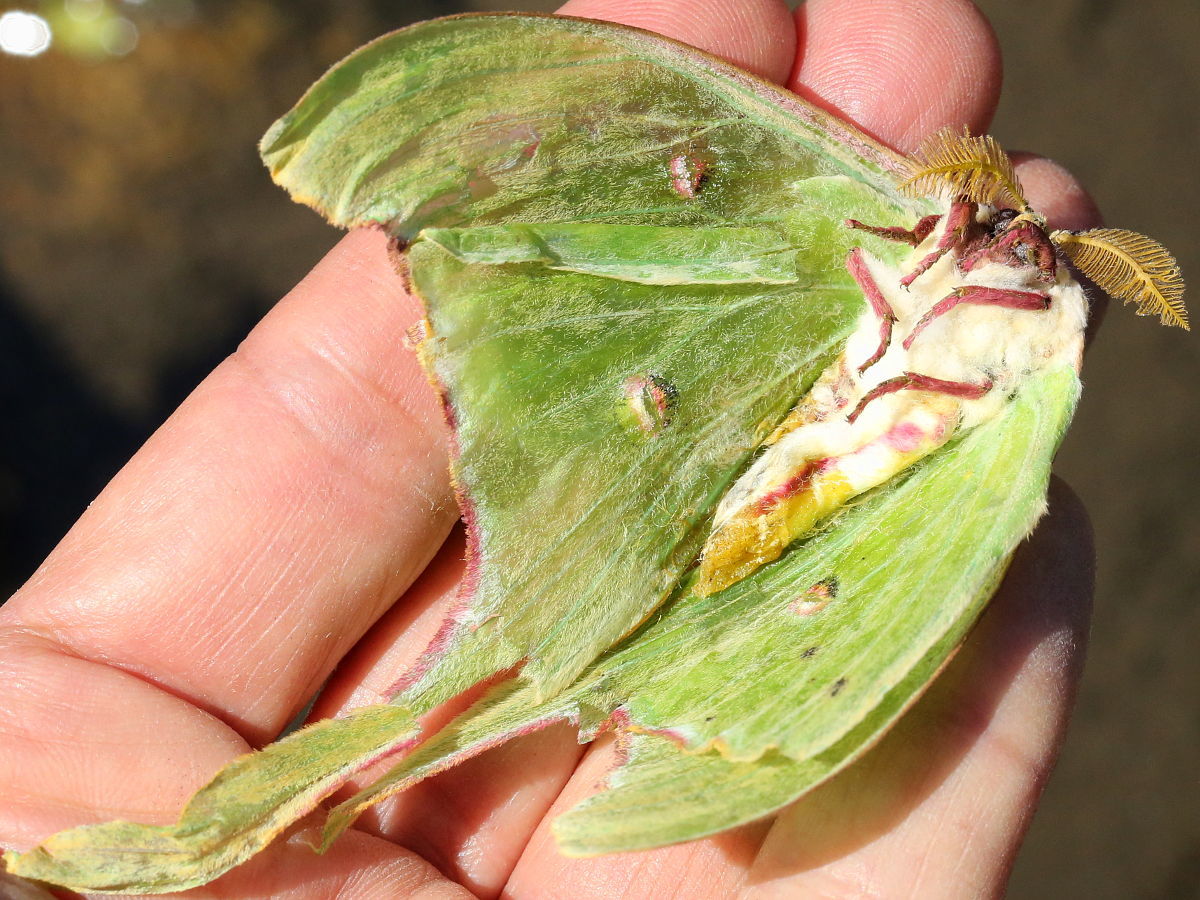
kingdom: Animalia
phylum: Arthropoda
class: Insecta
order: Lepidoptera
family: Saturniidae
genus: Actias
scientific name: Actias luna
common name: Luna moth
